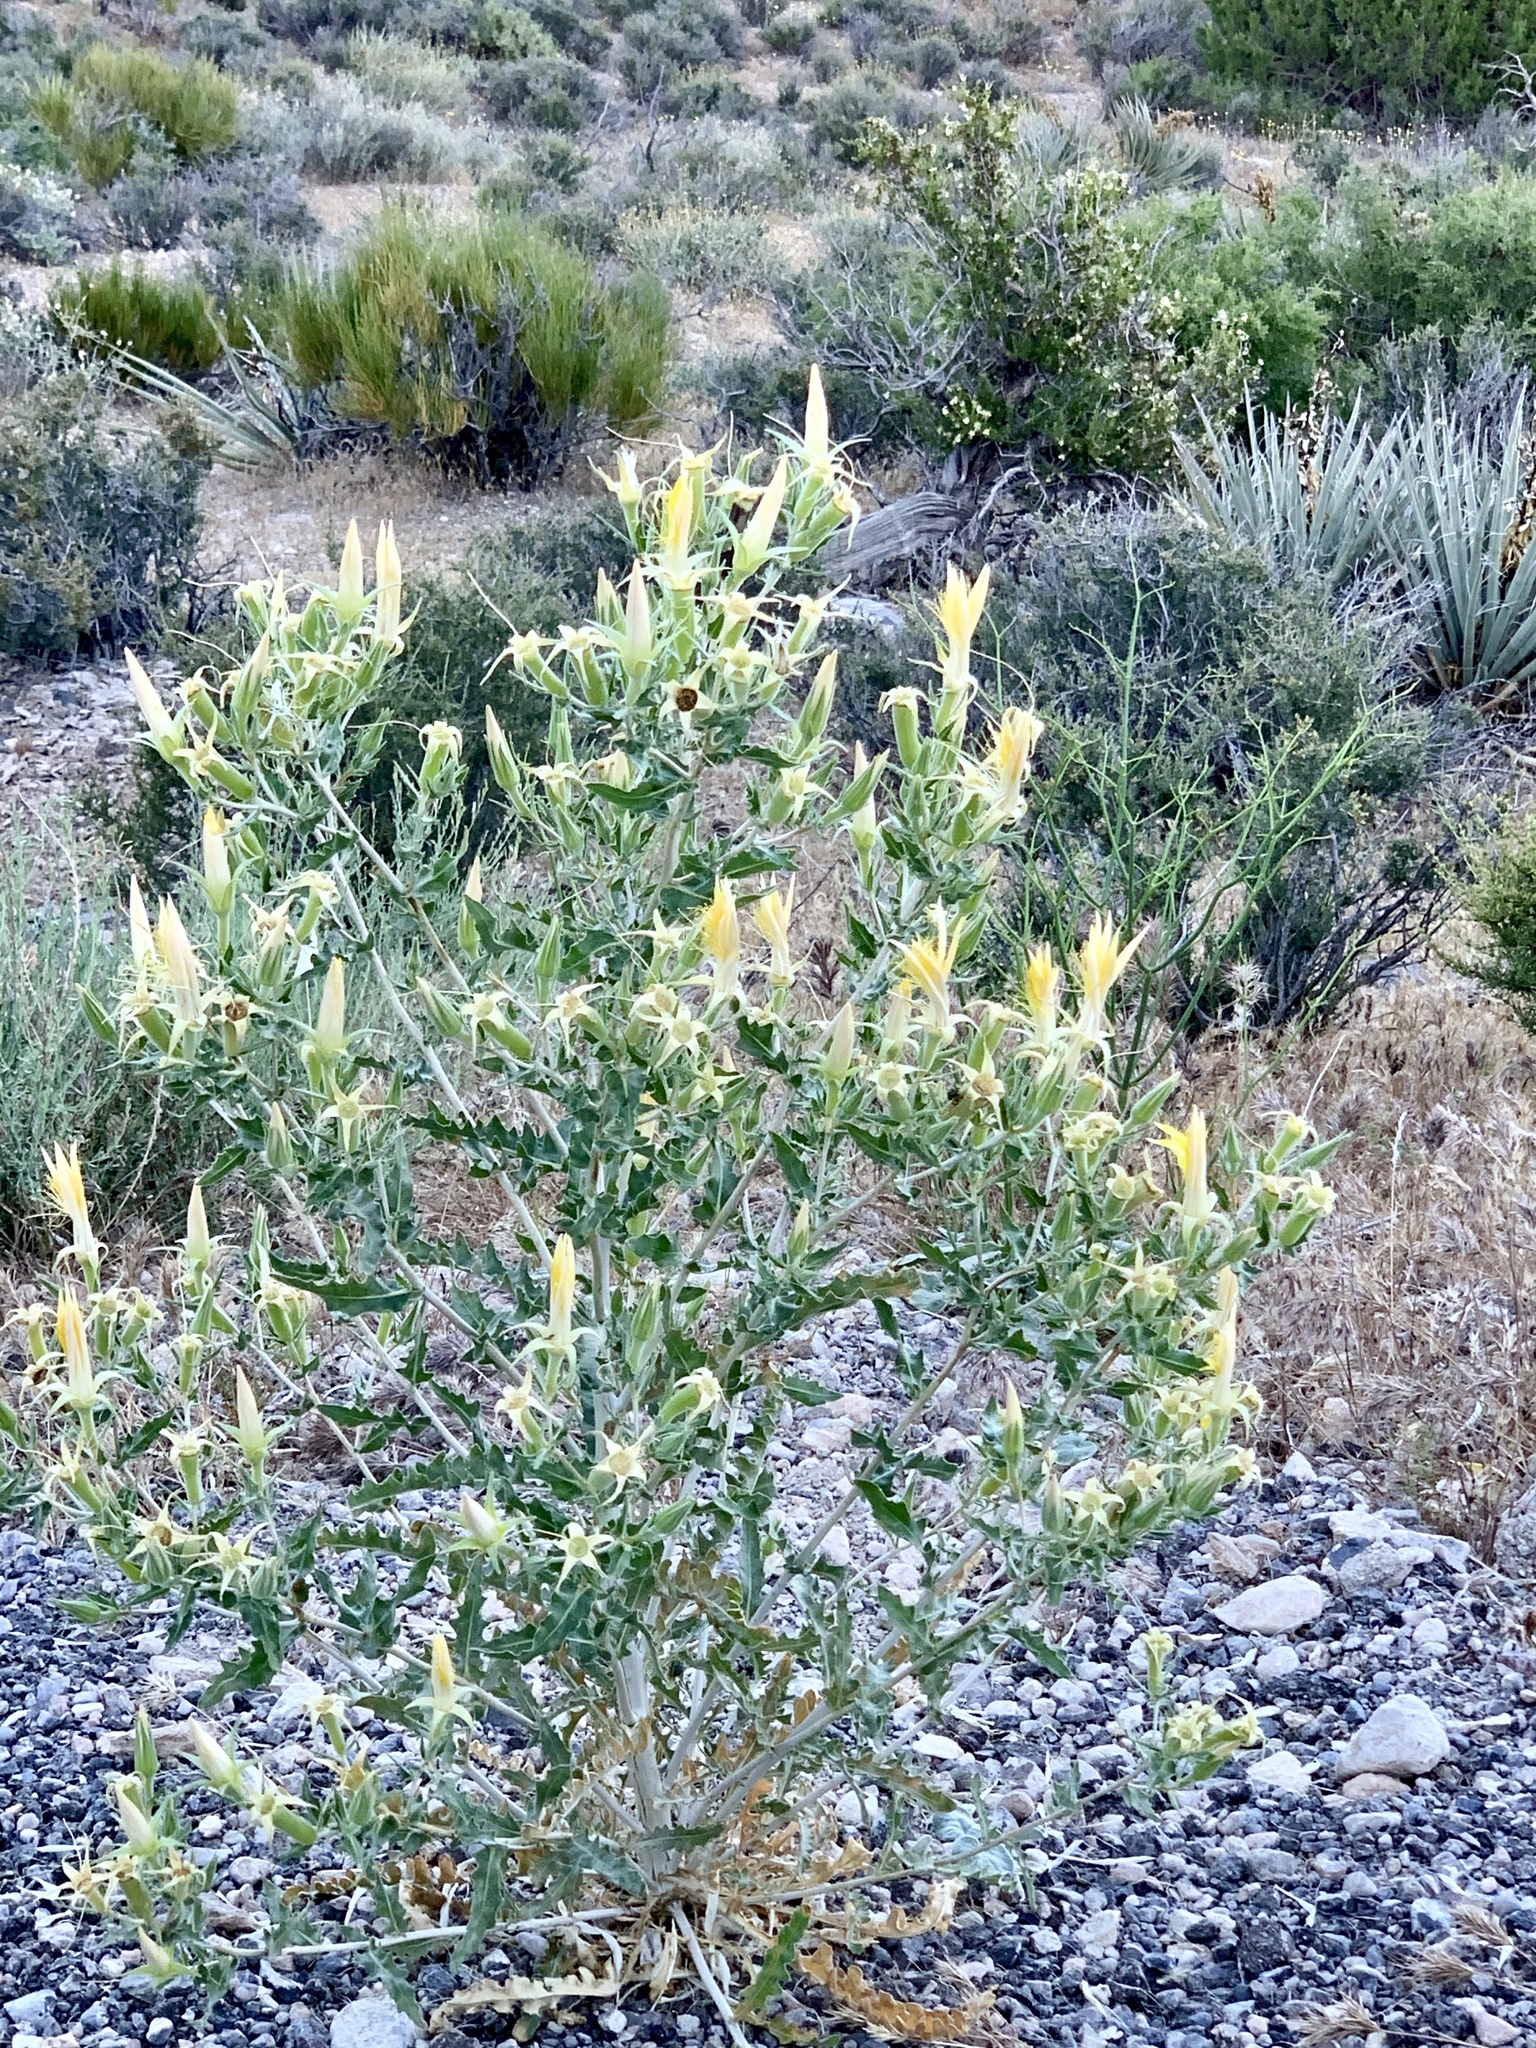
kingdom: Plantae
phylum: Tracheophyta
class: Magnoliopsida
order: Cornales
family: Loasaceae
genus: Mentzelia
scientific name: Mentzelia laevicaulis
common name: Smooth-stem blazingstar
